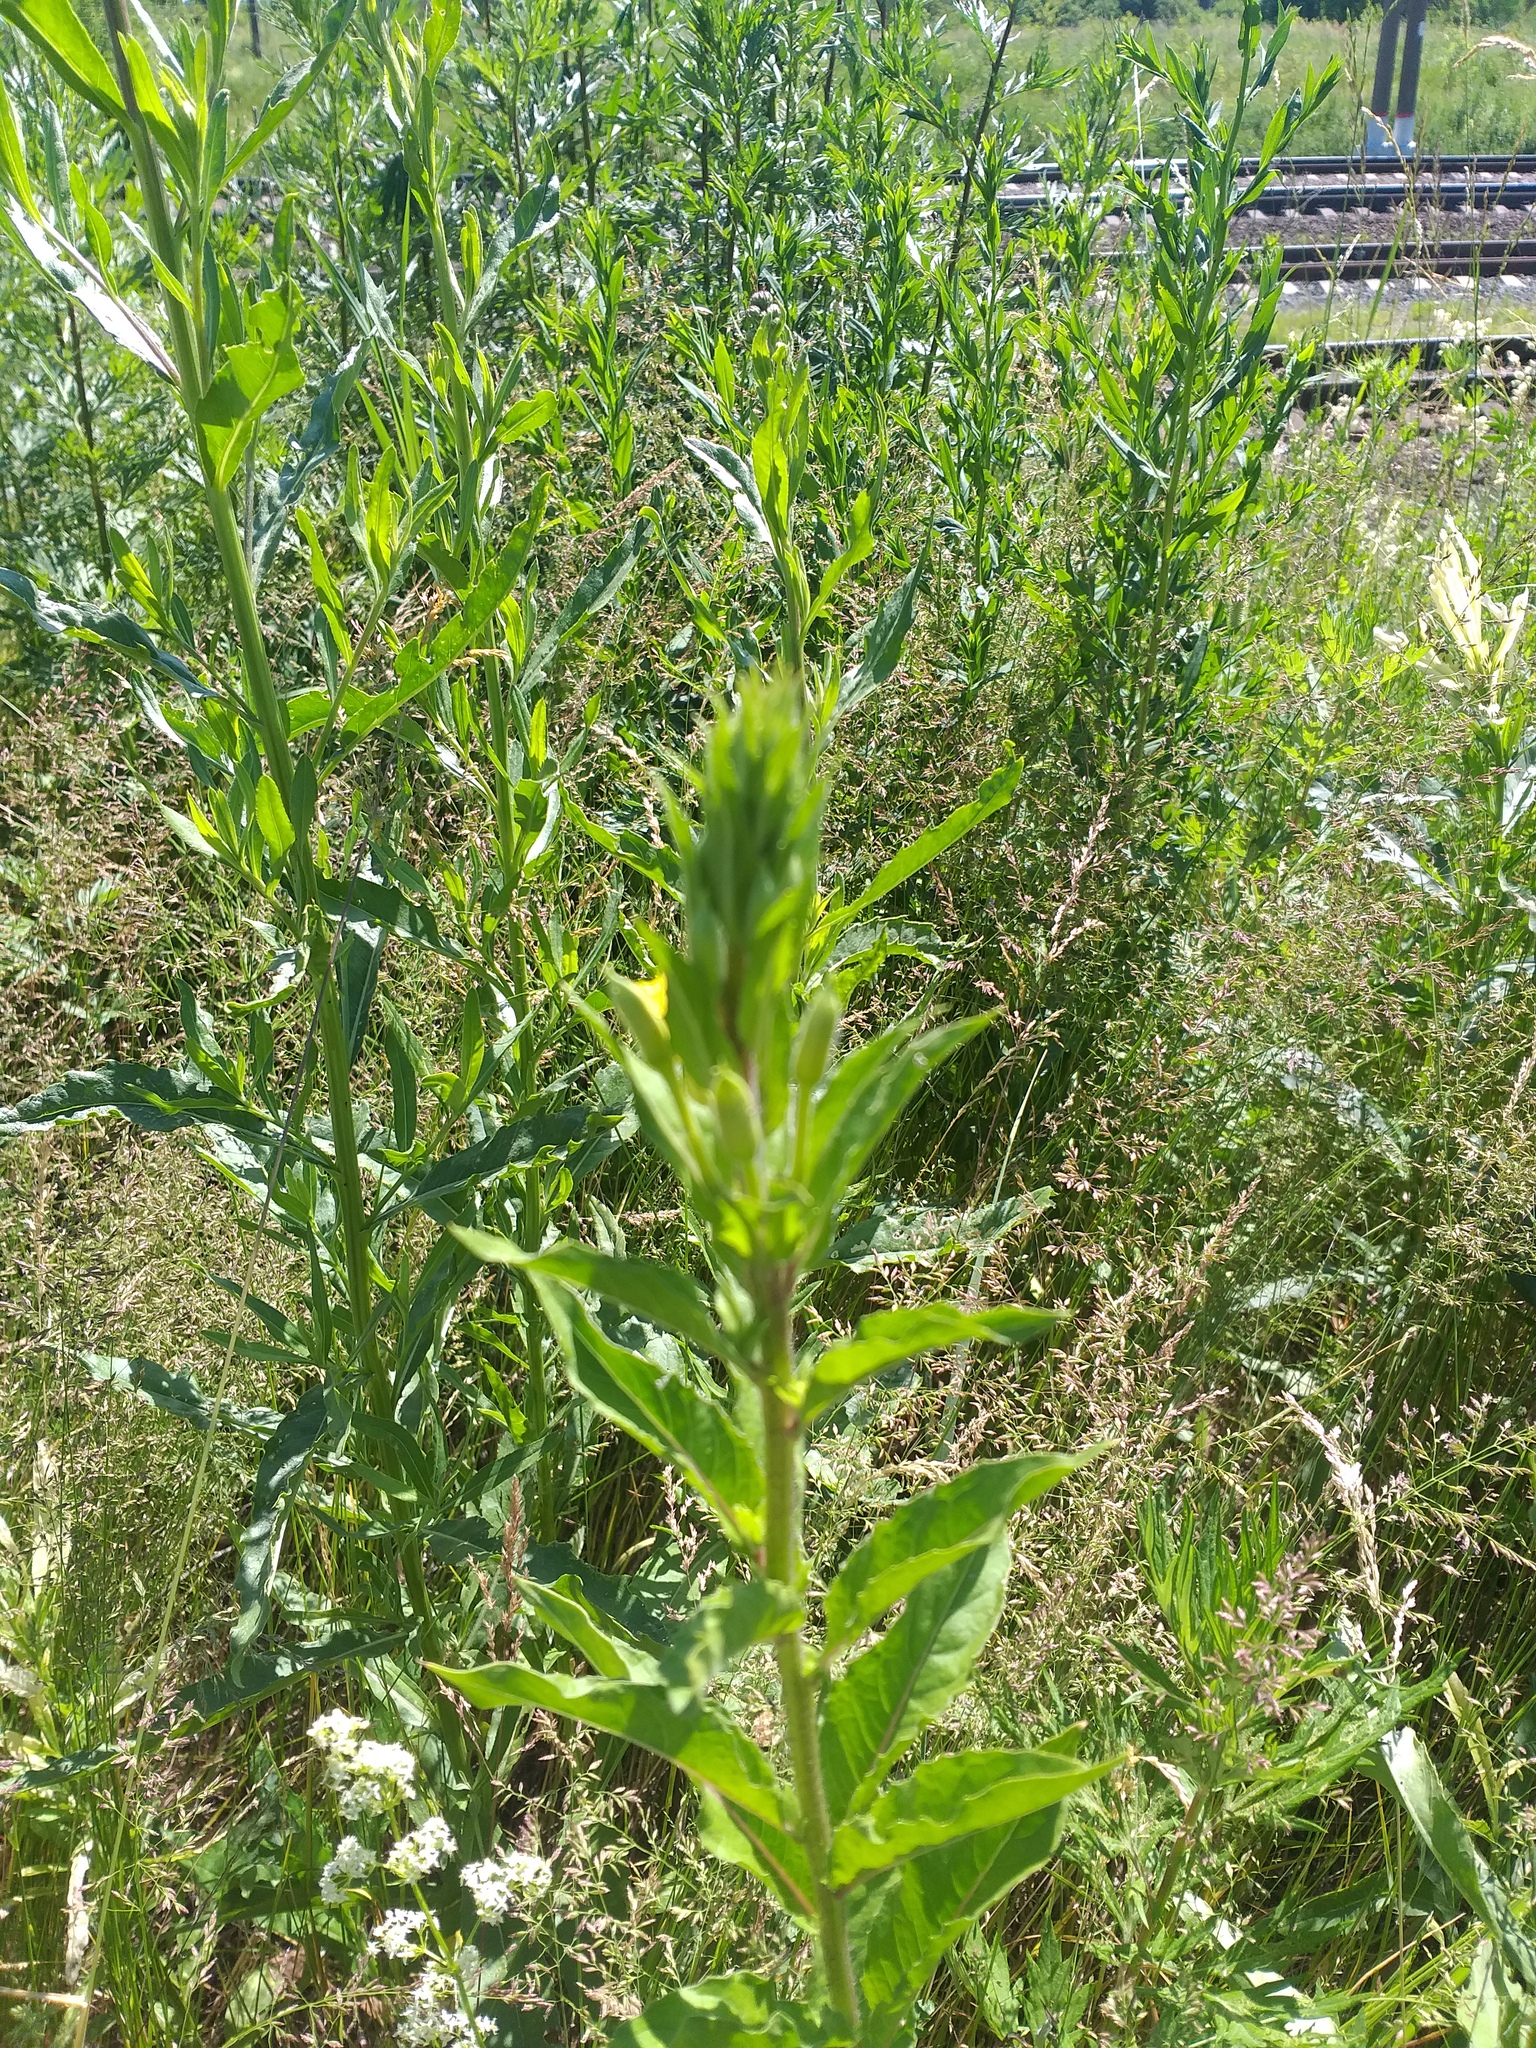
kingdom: Plantae
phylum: Tracheophyta
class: Magnoliopsida
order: Myrtales
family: Onagraceae
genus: Oenothera
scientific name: Oenothera rubricaulis
